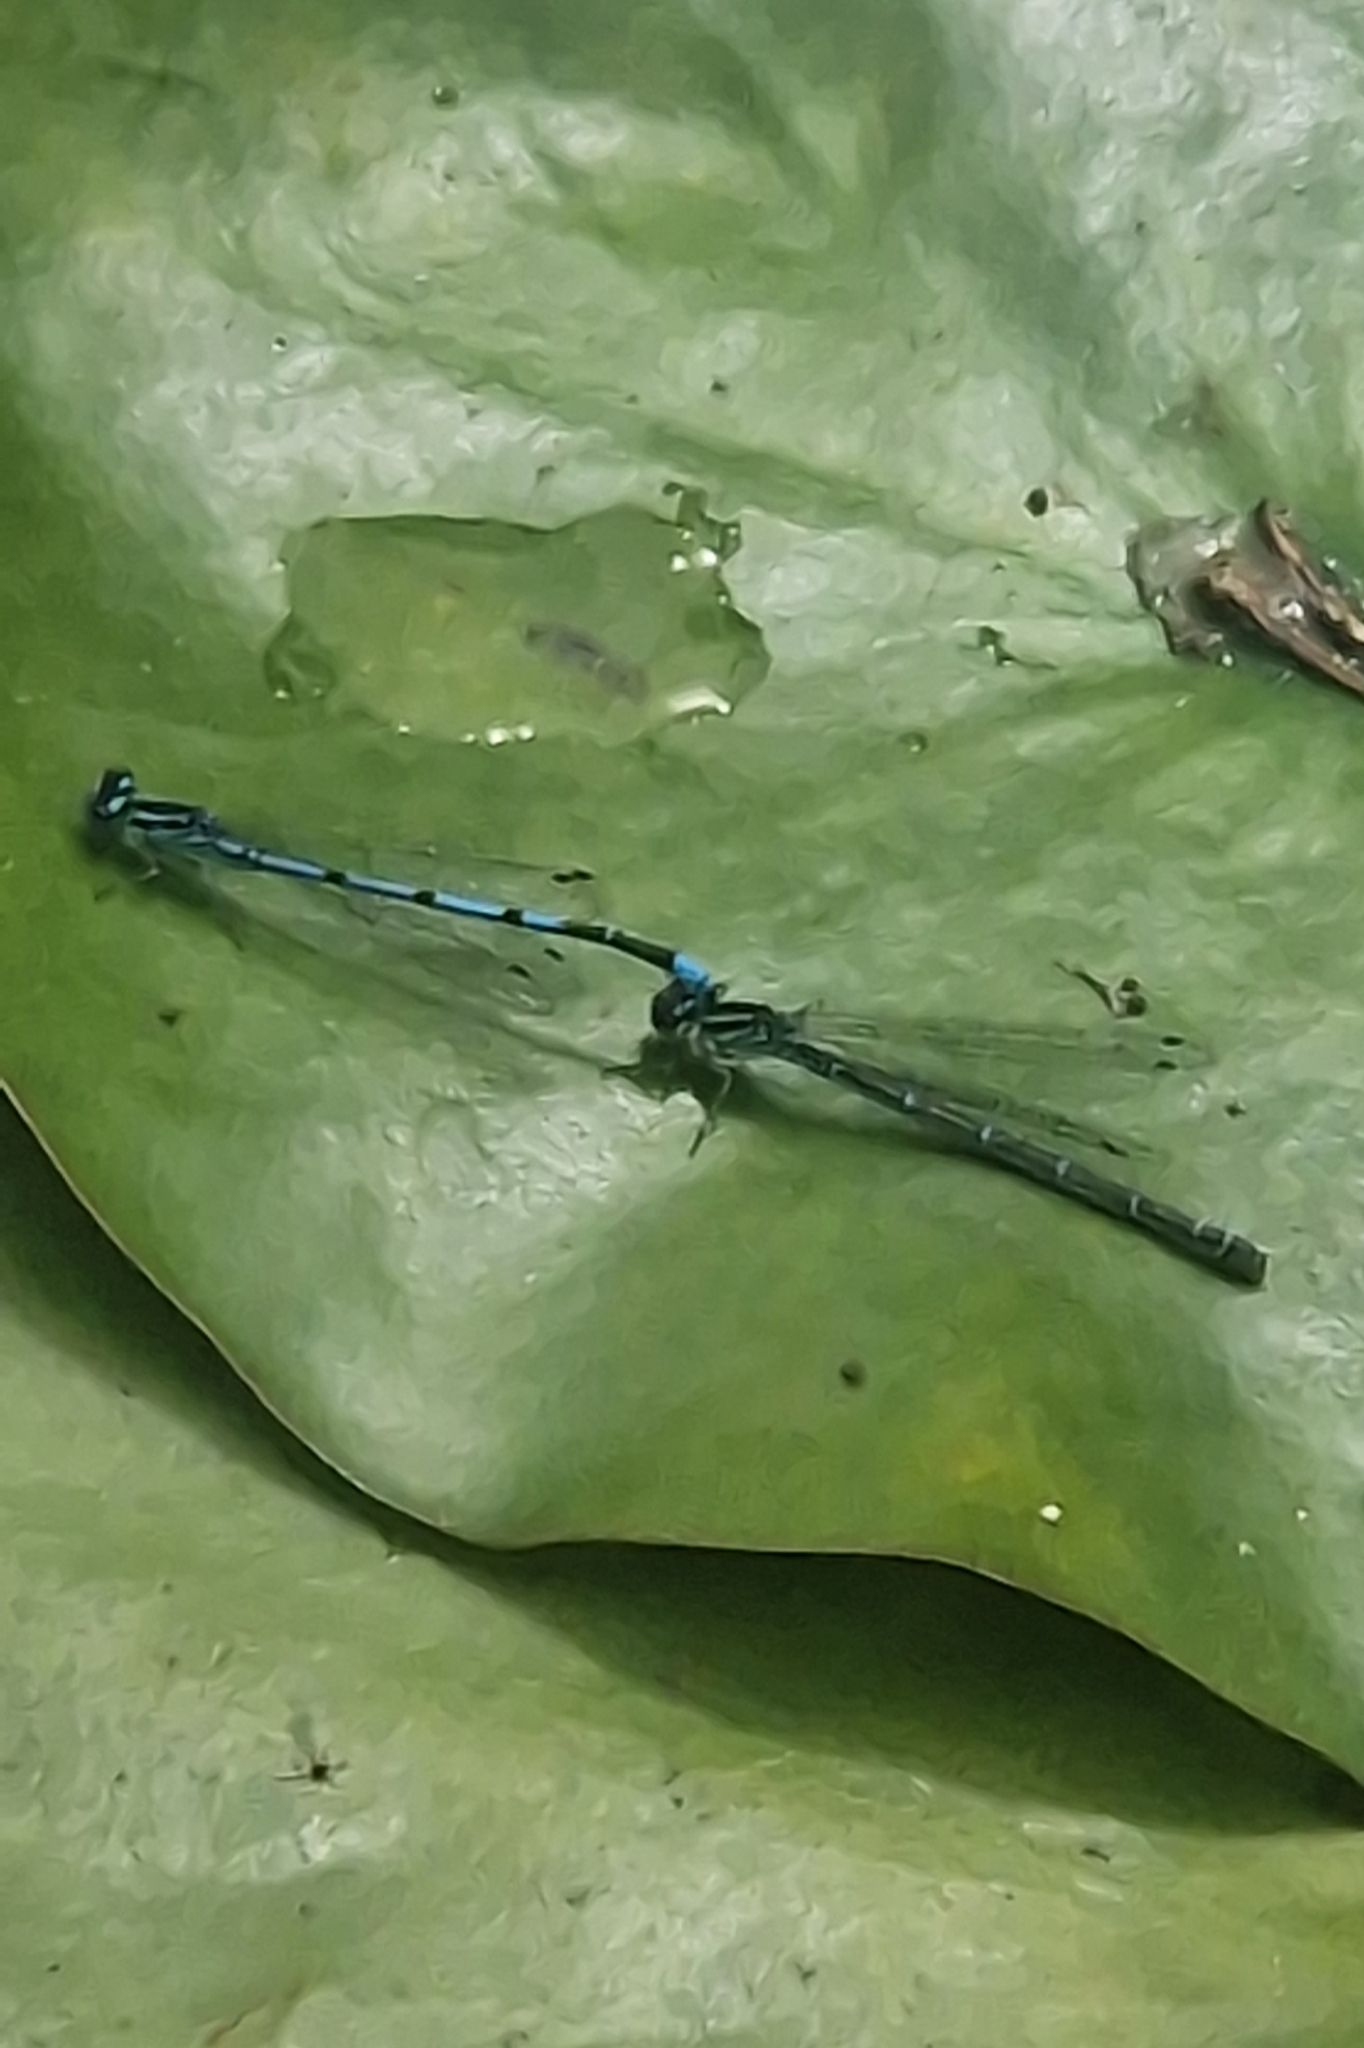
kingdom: Animalia
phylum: Arthropoda
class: Insecta
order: Odonata
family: Coenagrionidae
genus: Coenagrion
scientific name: Coenagrion puella
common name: Azure damselfly
